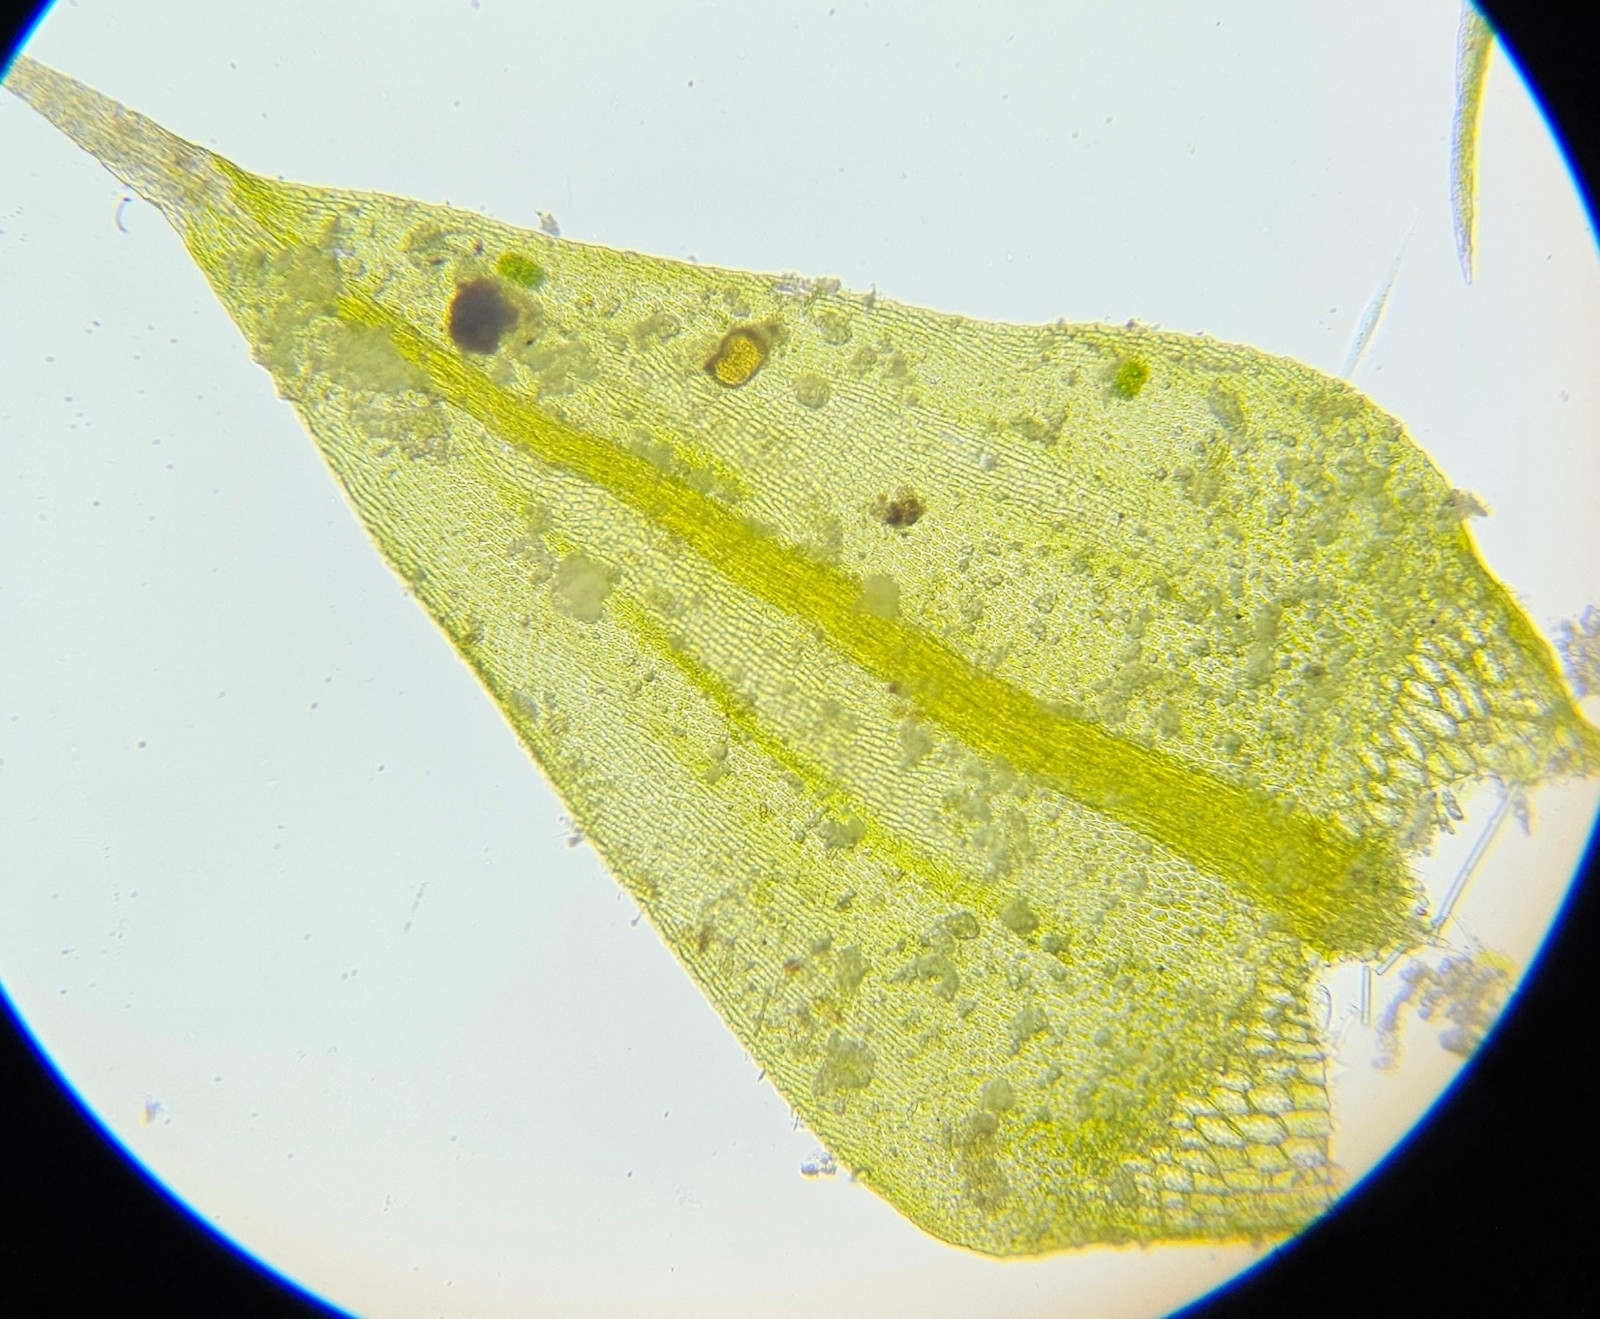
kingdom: Plantae
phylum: Bryophyta
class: Bryopsida
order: Hypnales
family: Amblystegiaceae
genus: Cratoneuron
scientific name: Cratoneuron filicinum
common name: Fern-leaved hook moss
